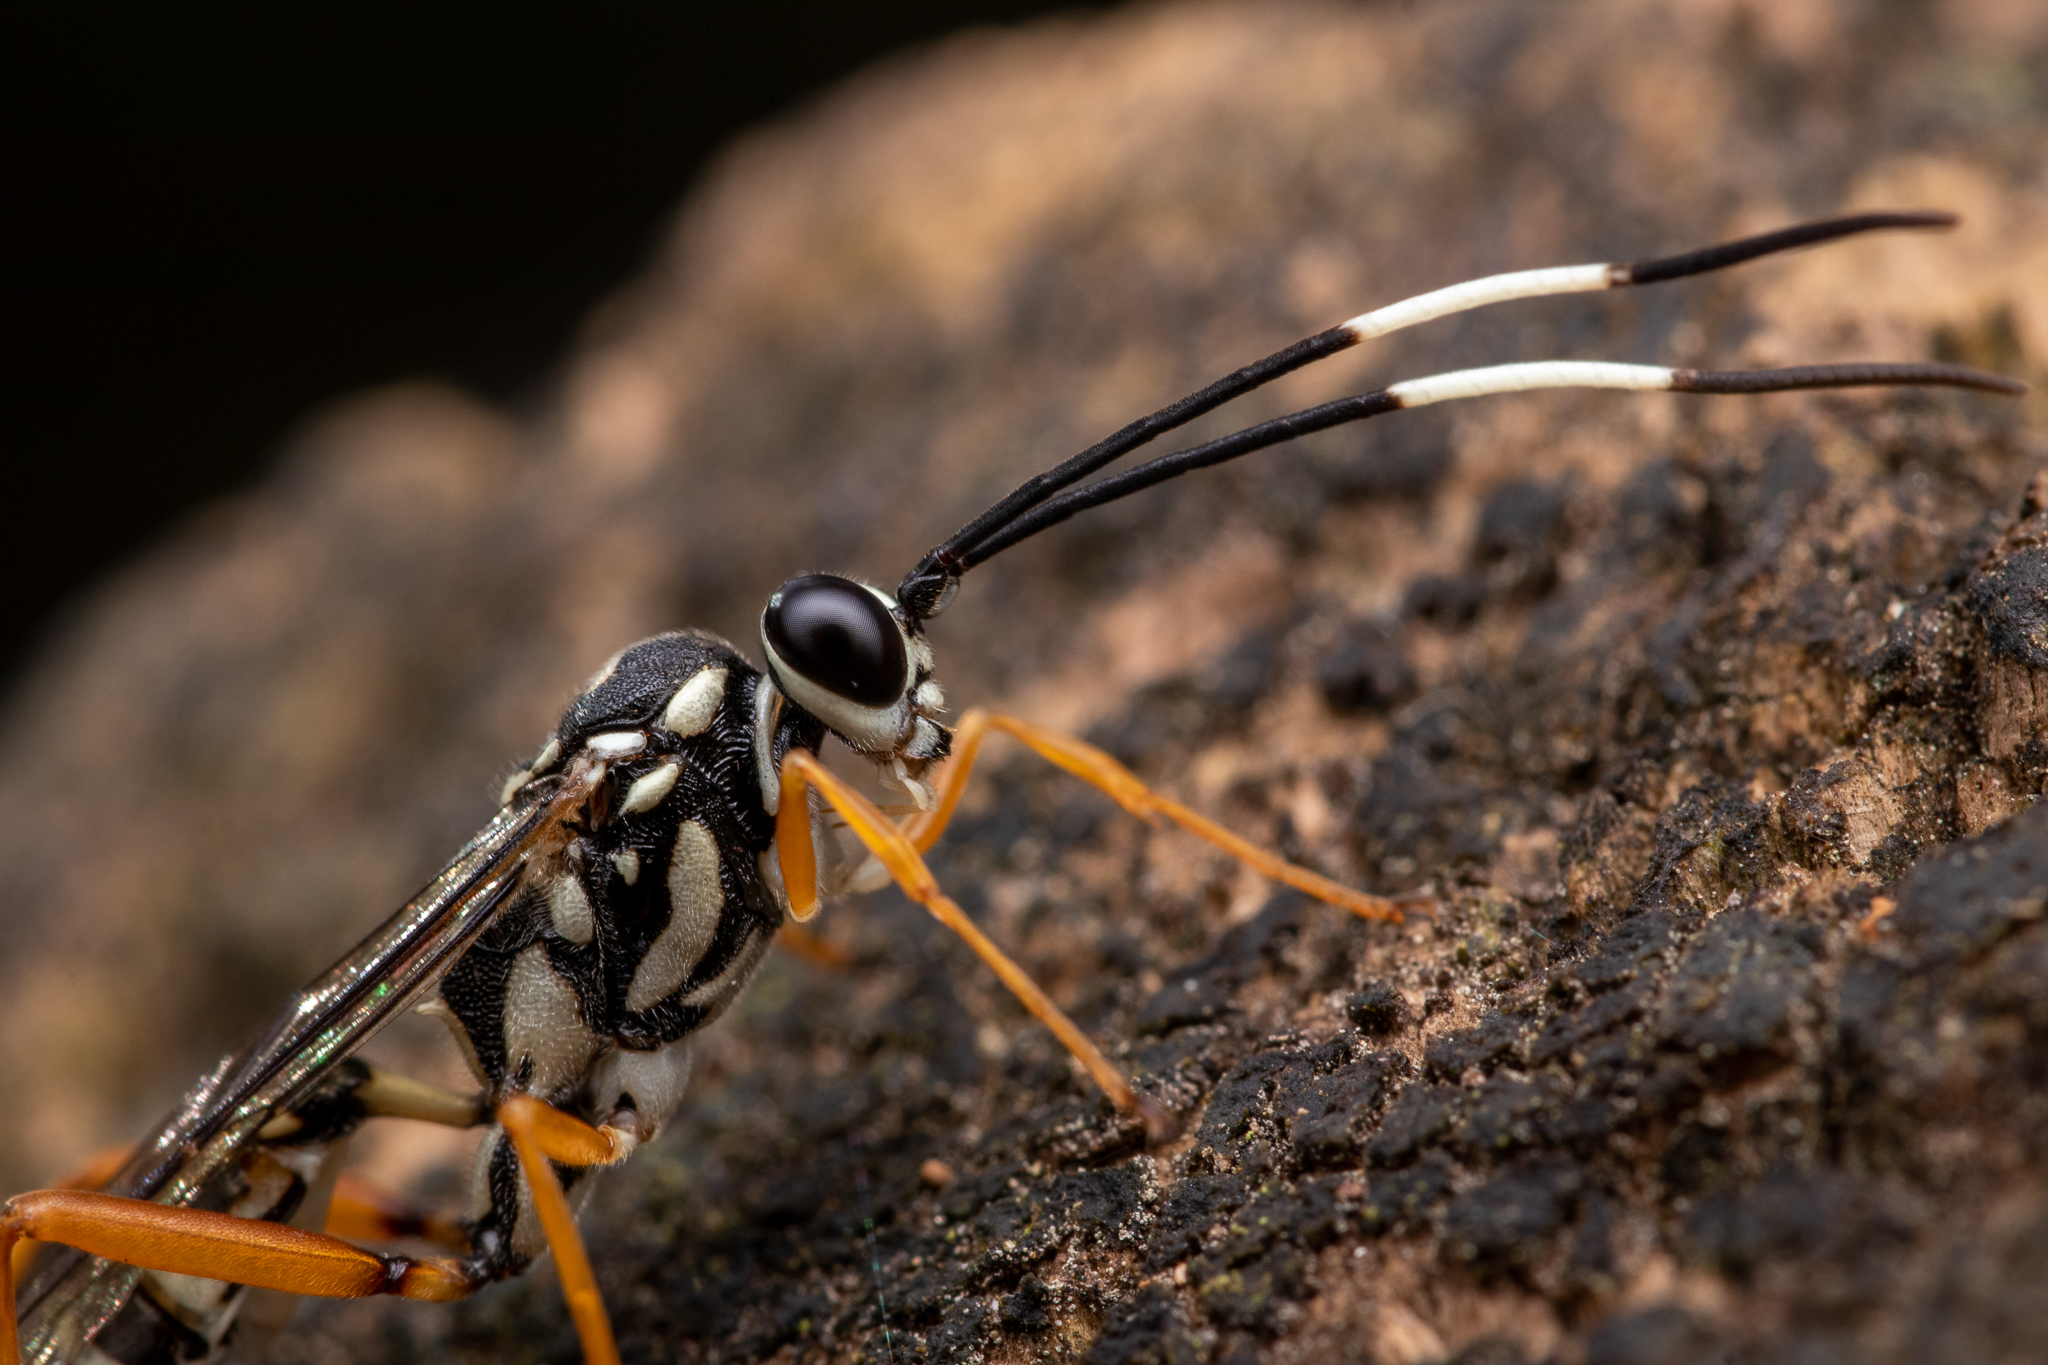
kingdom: Animalia
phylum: Arthropoda
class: Insecta
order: Hymenoptera
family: Ichneumonidae
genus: Cryptanura
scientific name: Cryptanura septentrionalis
